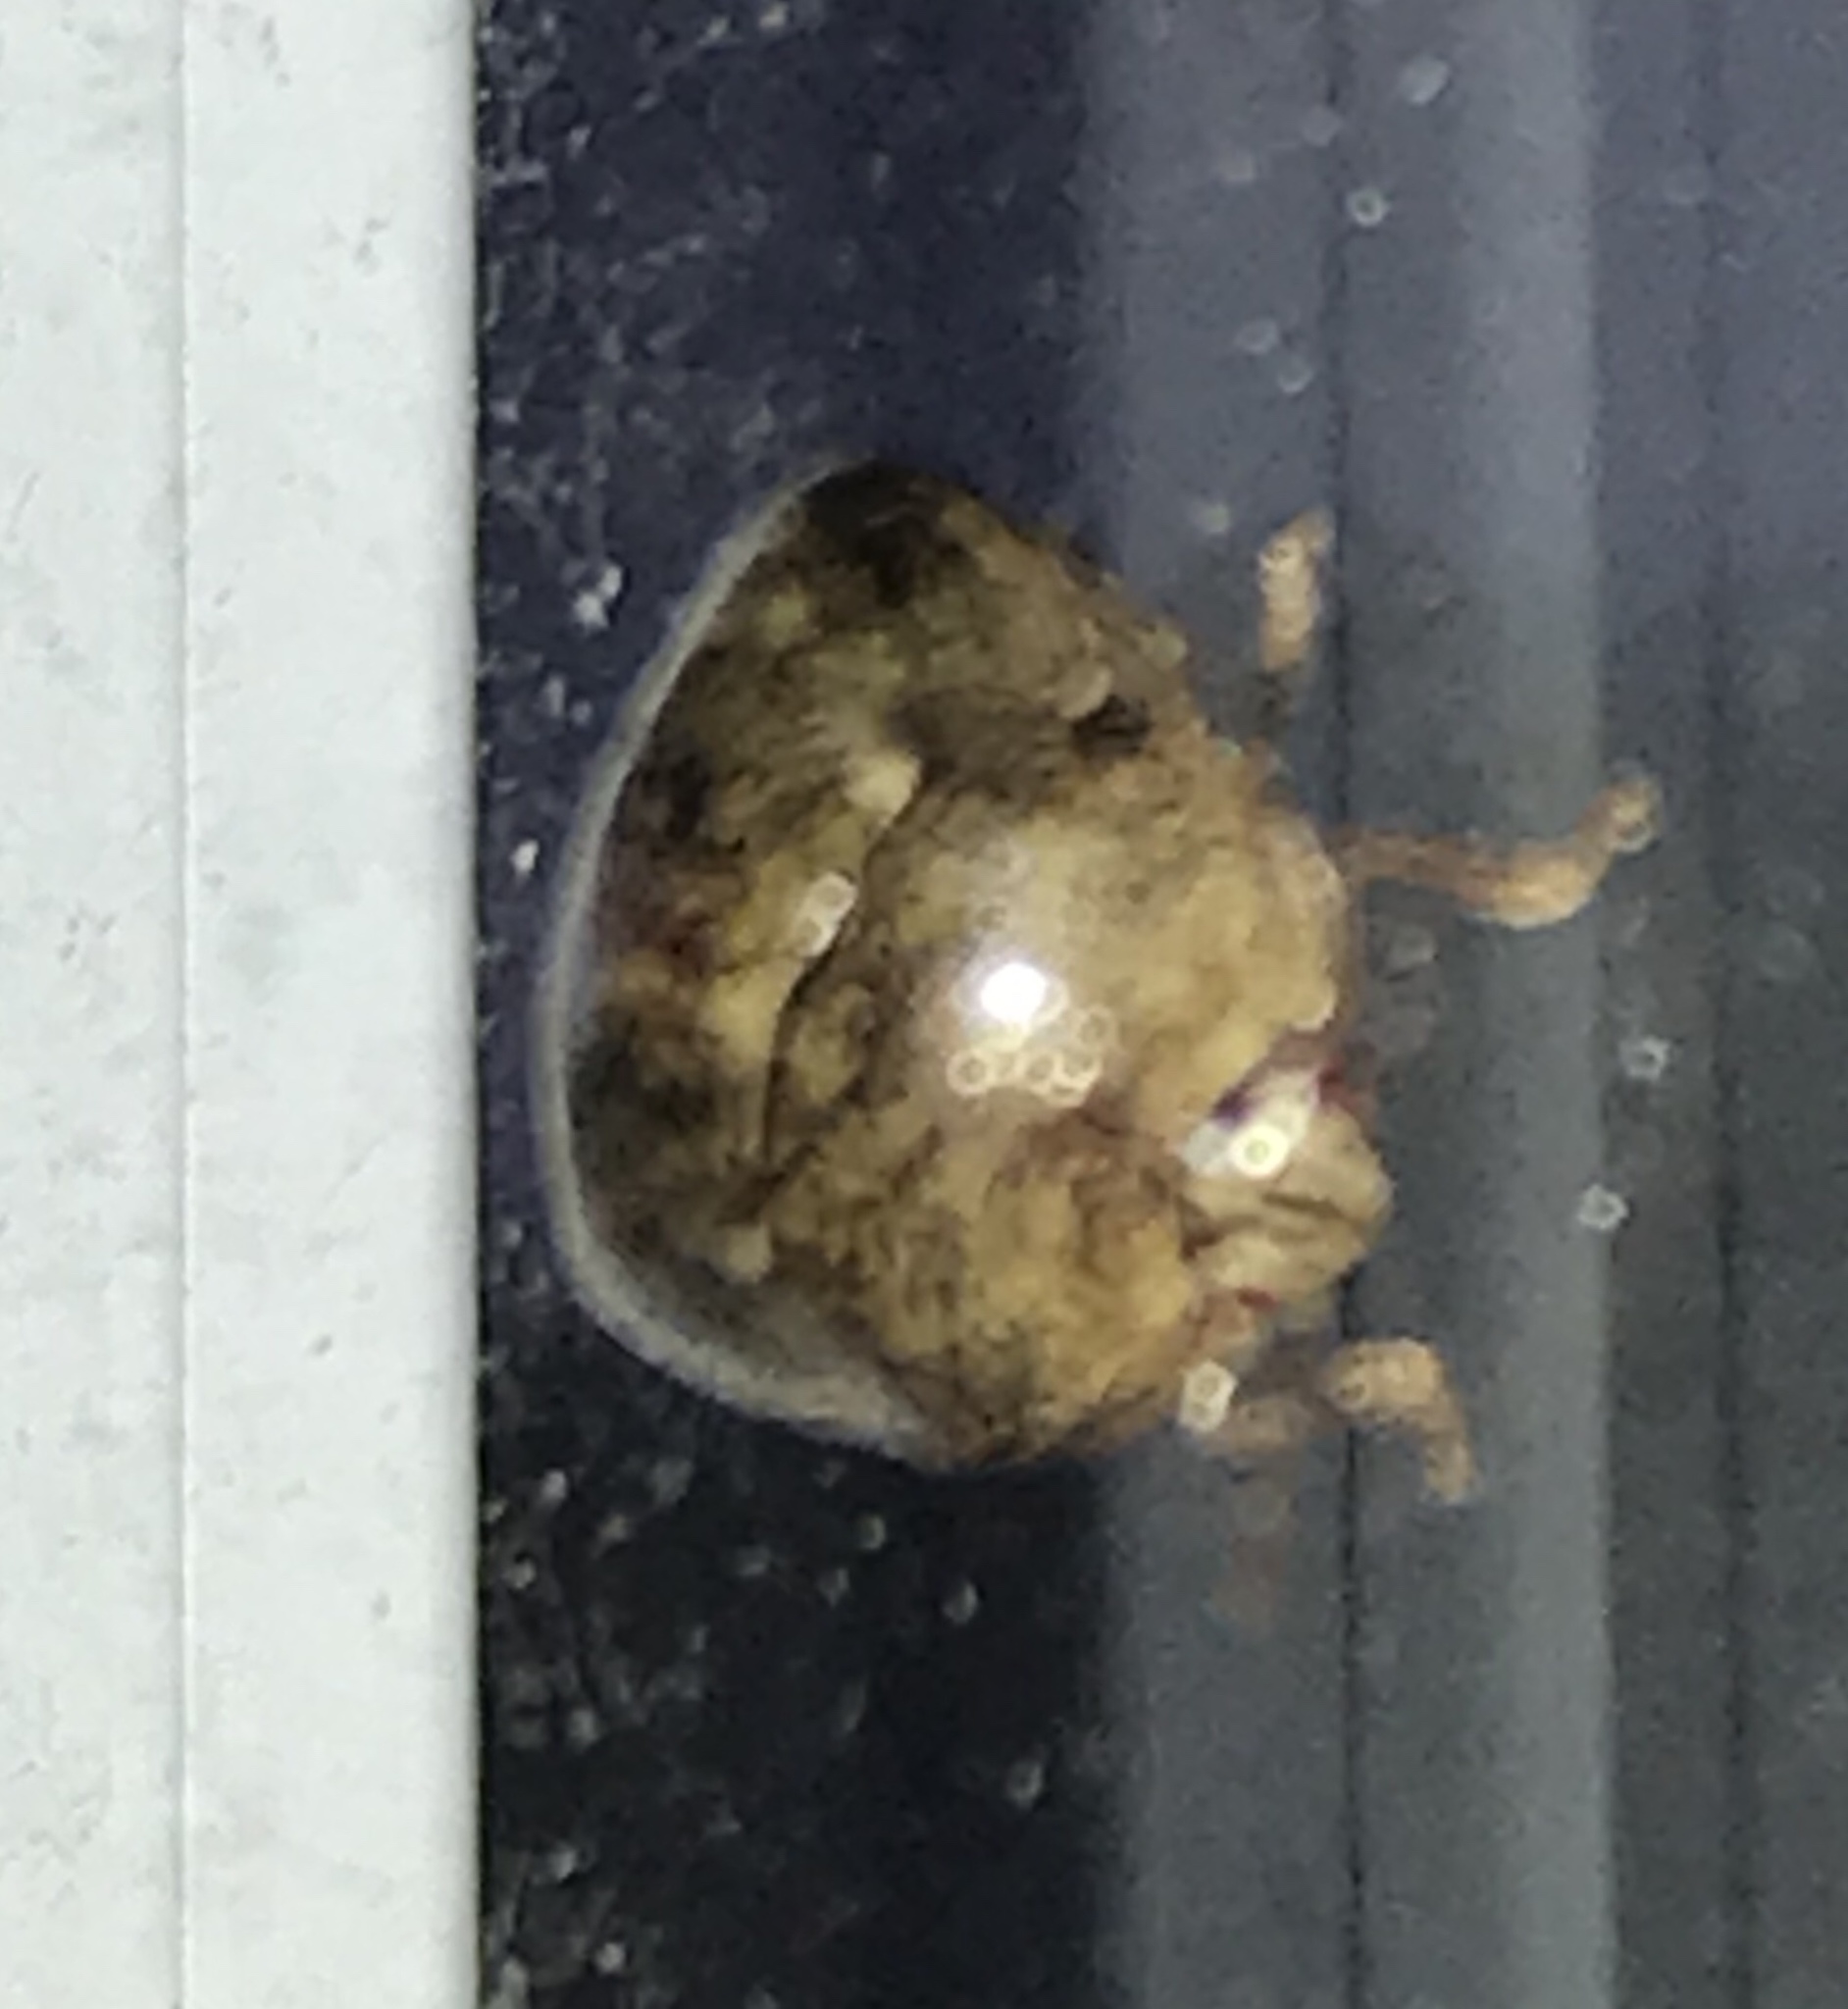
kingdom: Animalia
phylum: Arthropoda
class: Insecta
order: Hemiptera
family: Plataspidae
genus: Megacopta
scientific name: Megacopta cribraria
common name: Bean plataspid
